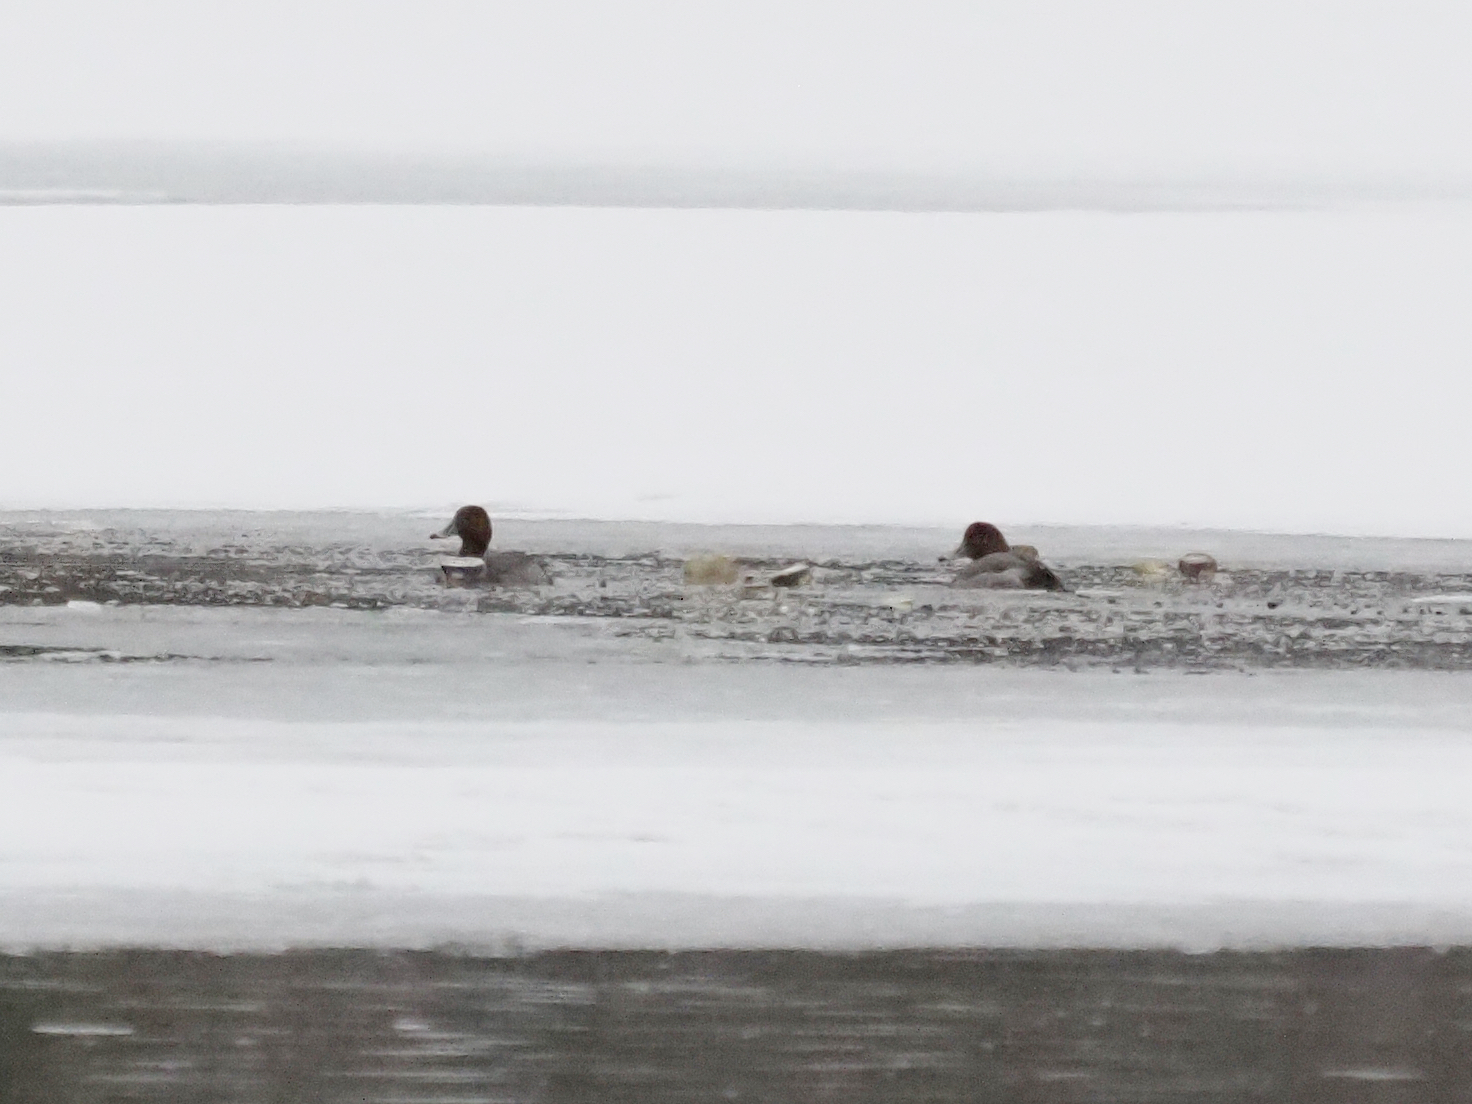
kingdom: Animalia
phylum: Chordata
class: Aves
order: Anseriformes
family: Anatidae
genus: Aythya
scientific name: Aythya americana
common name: Redhead
